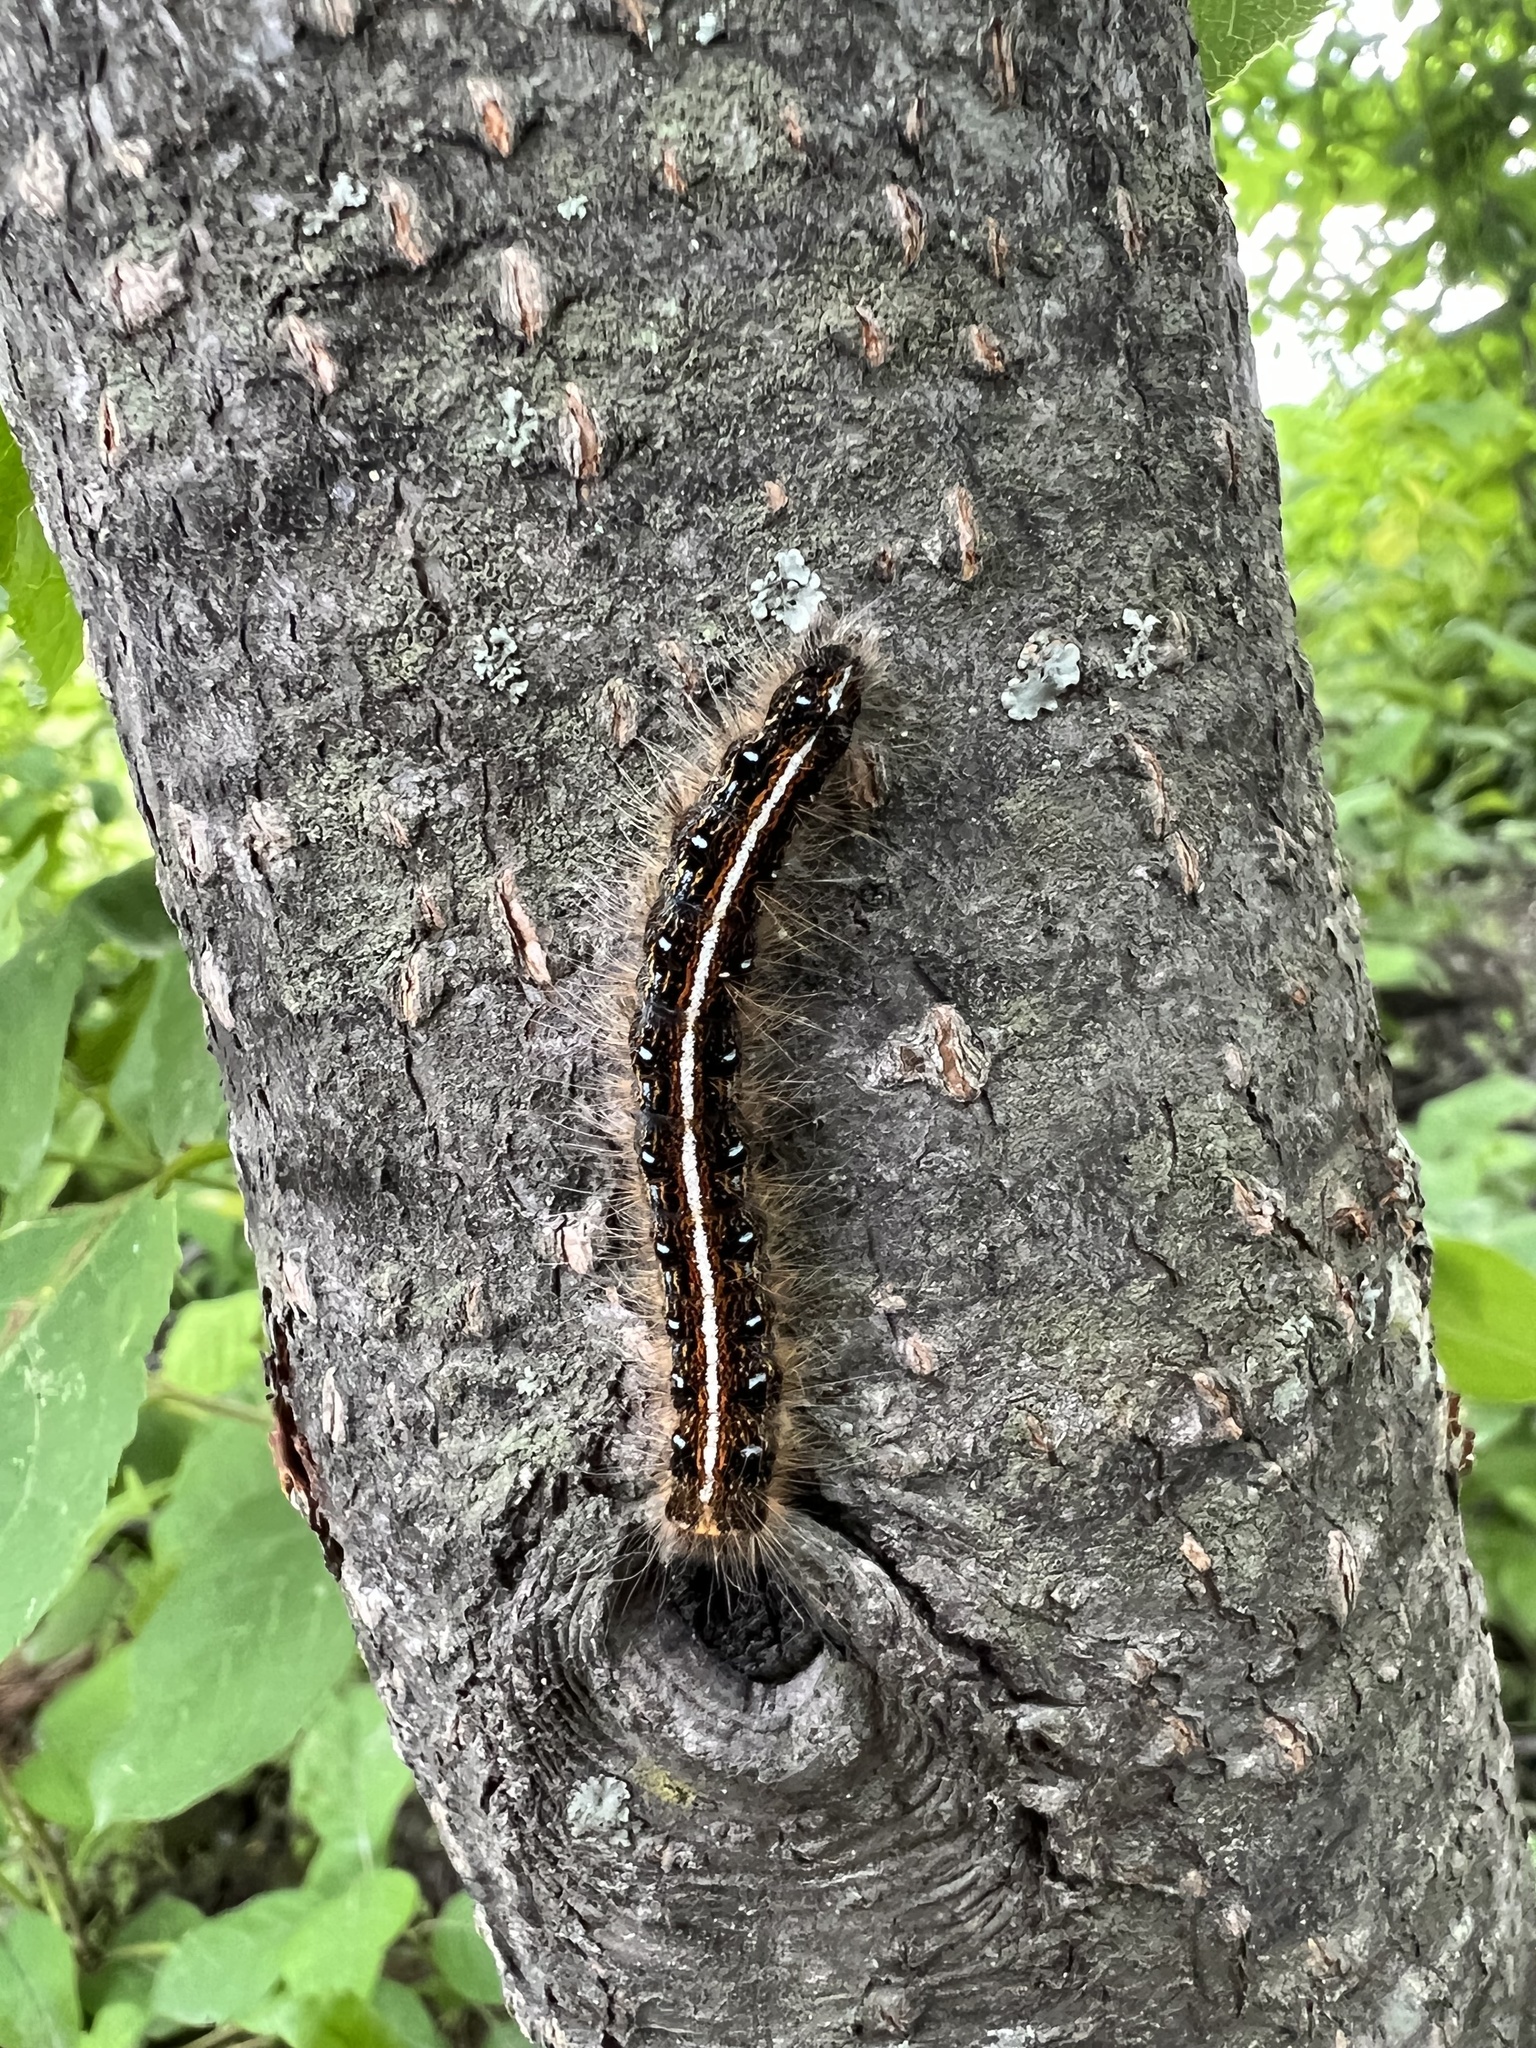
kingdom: Animalia
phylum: Arthropoda
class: Insecta
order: Lepidoptera
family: Lasiocampidae
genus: Malacosoma
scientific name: Malacosoma americana
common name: Eastern tent caterpillar moth
